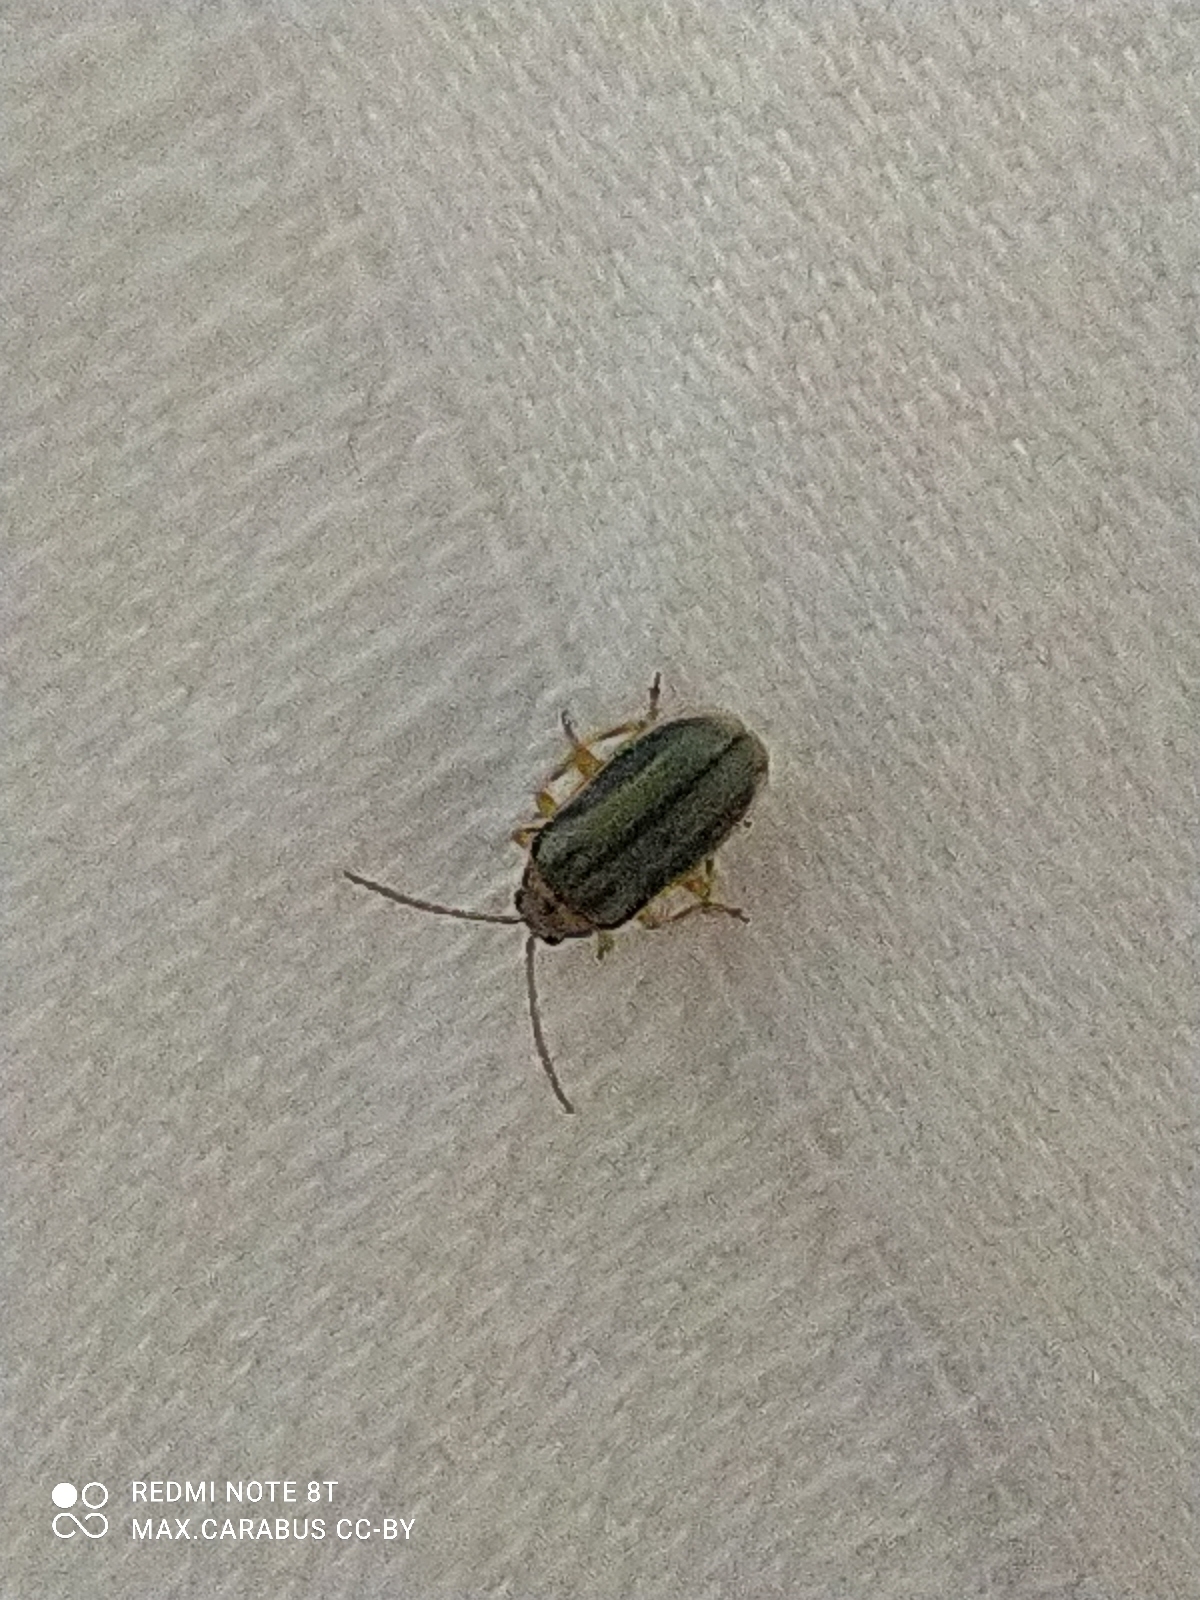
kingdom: Animalia
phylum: Arthropoda
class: Insecta
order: Coleoptera
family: Chrysomelidae
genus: Xanthogaleruca
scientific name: Xanthogaleruca luteola
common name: Elm leaf beetle
